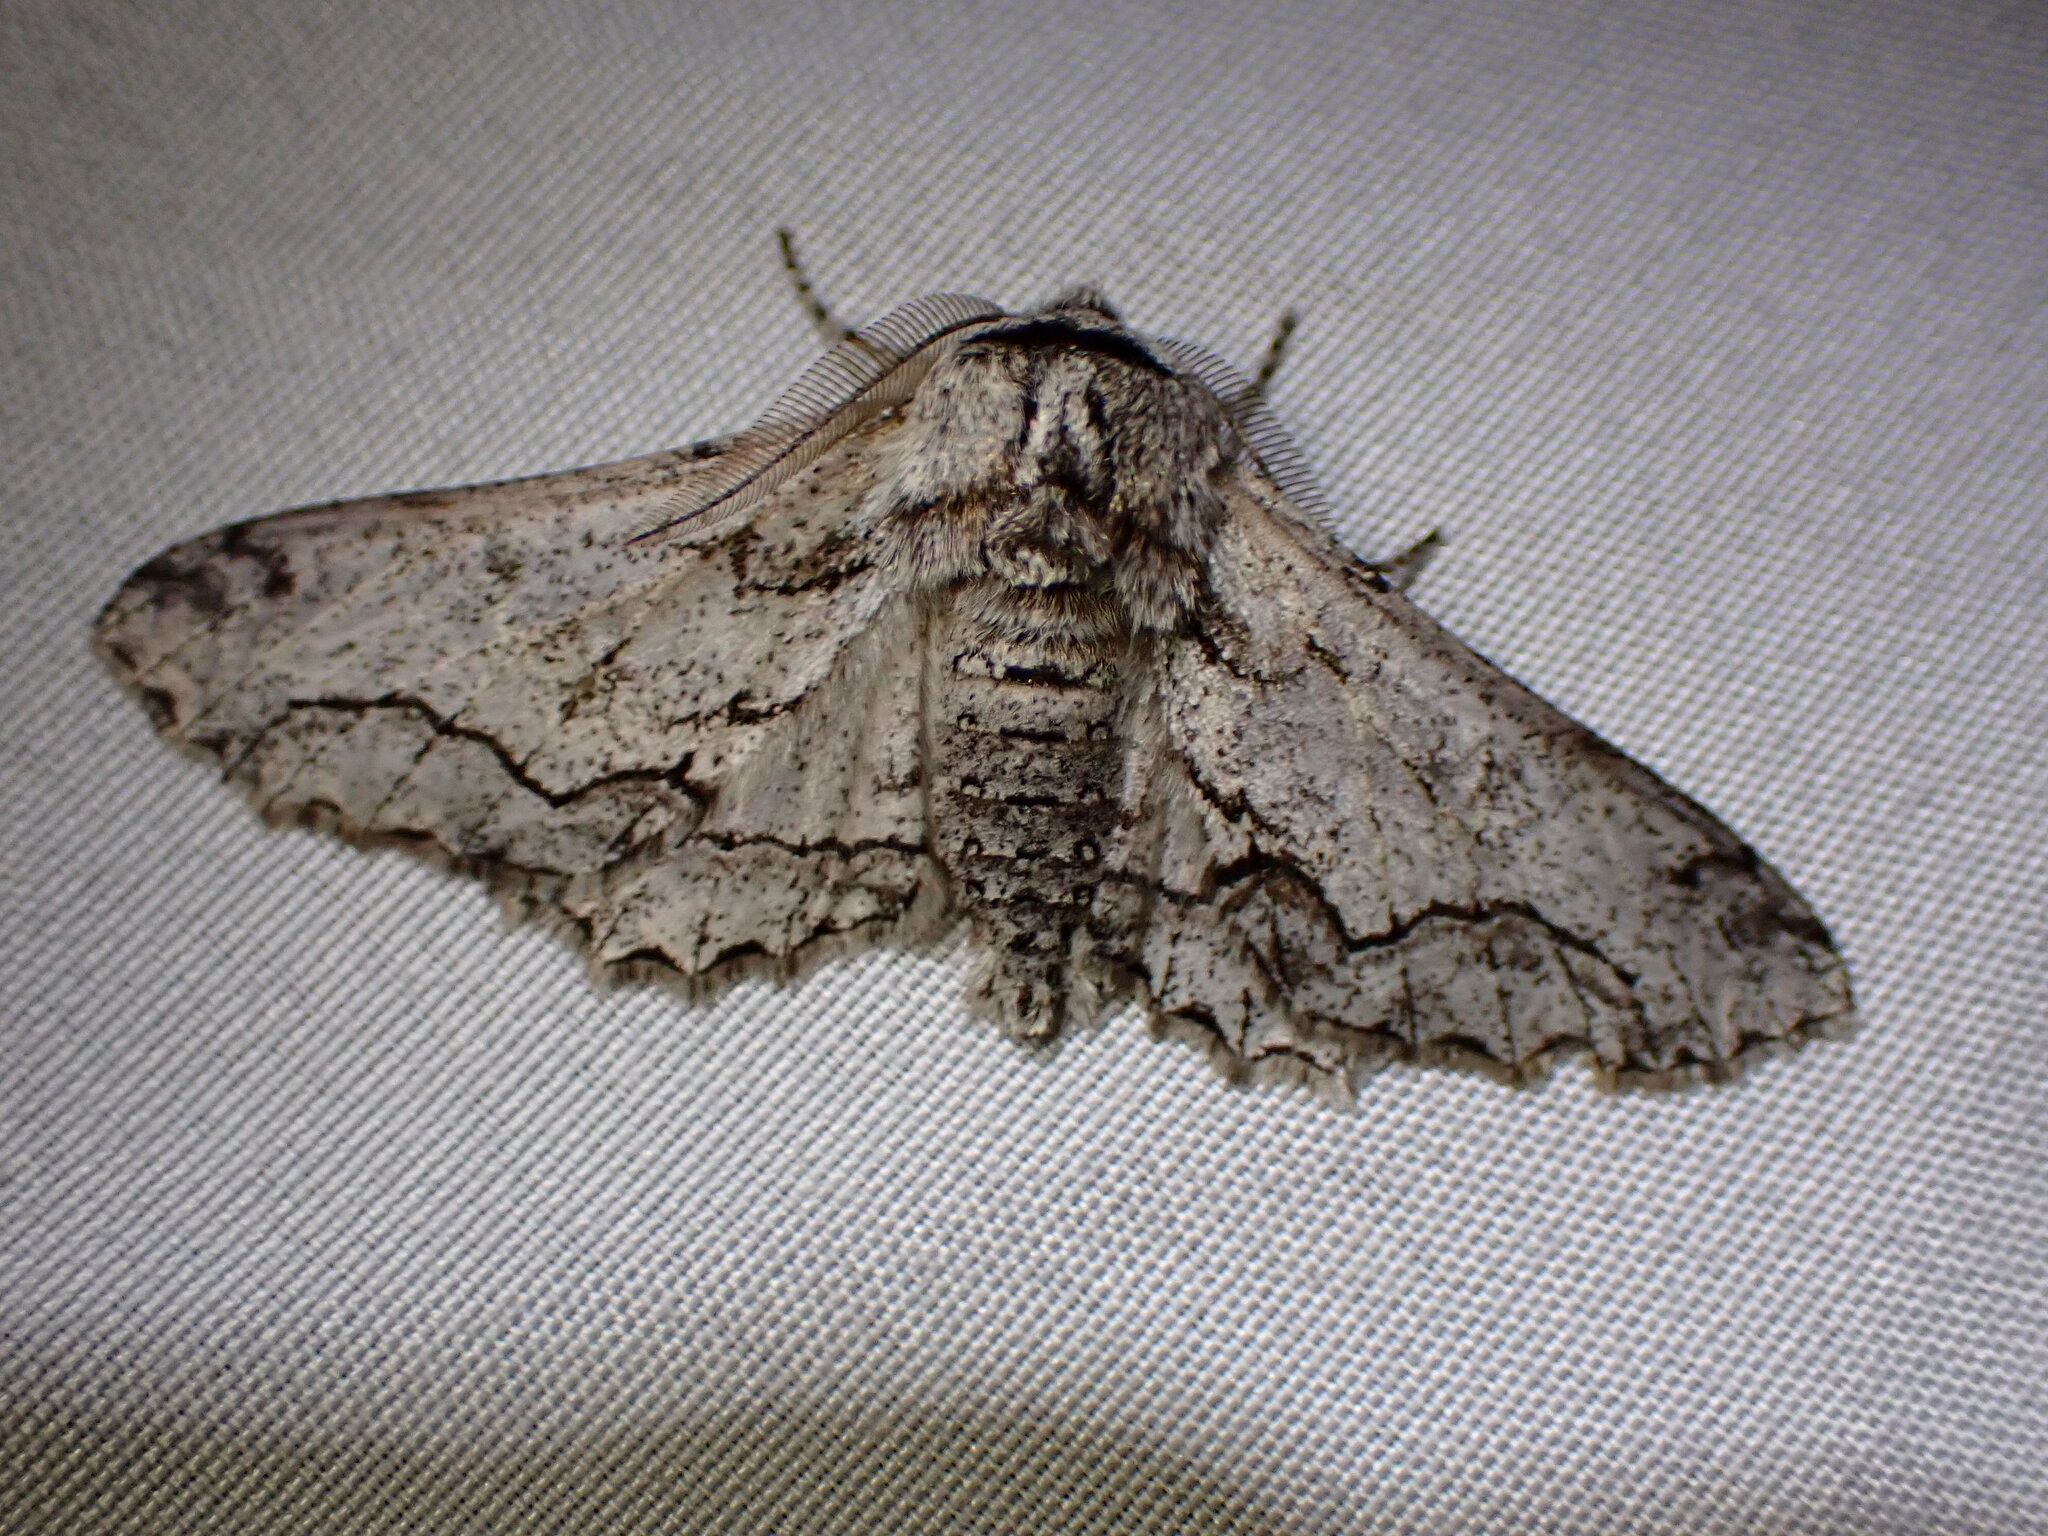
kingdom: Animalia
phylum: Arthropoda
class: Insecta
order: Lepidoptera
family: Geometridae
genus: Biston
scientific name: Biston sinuata
